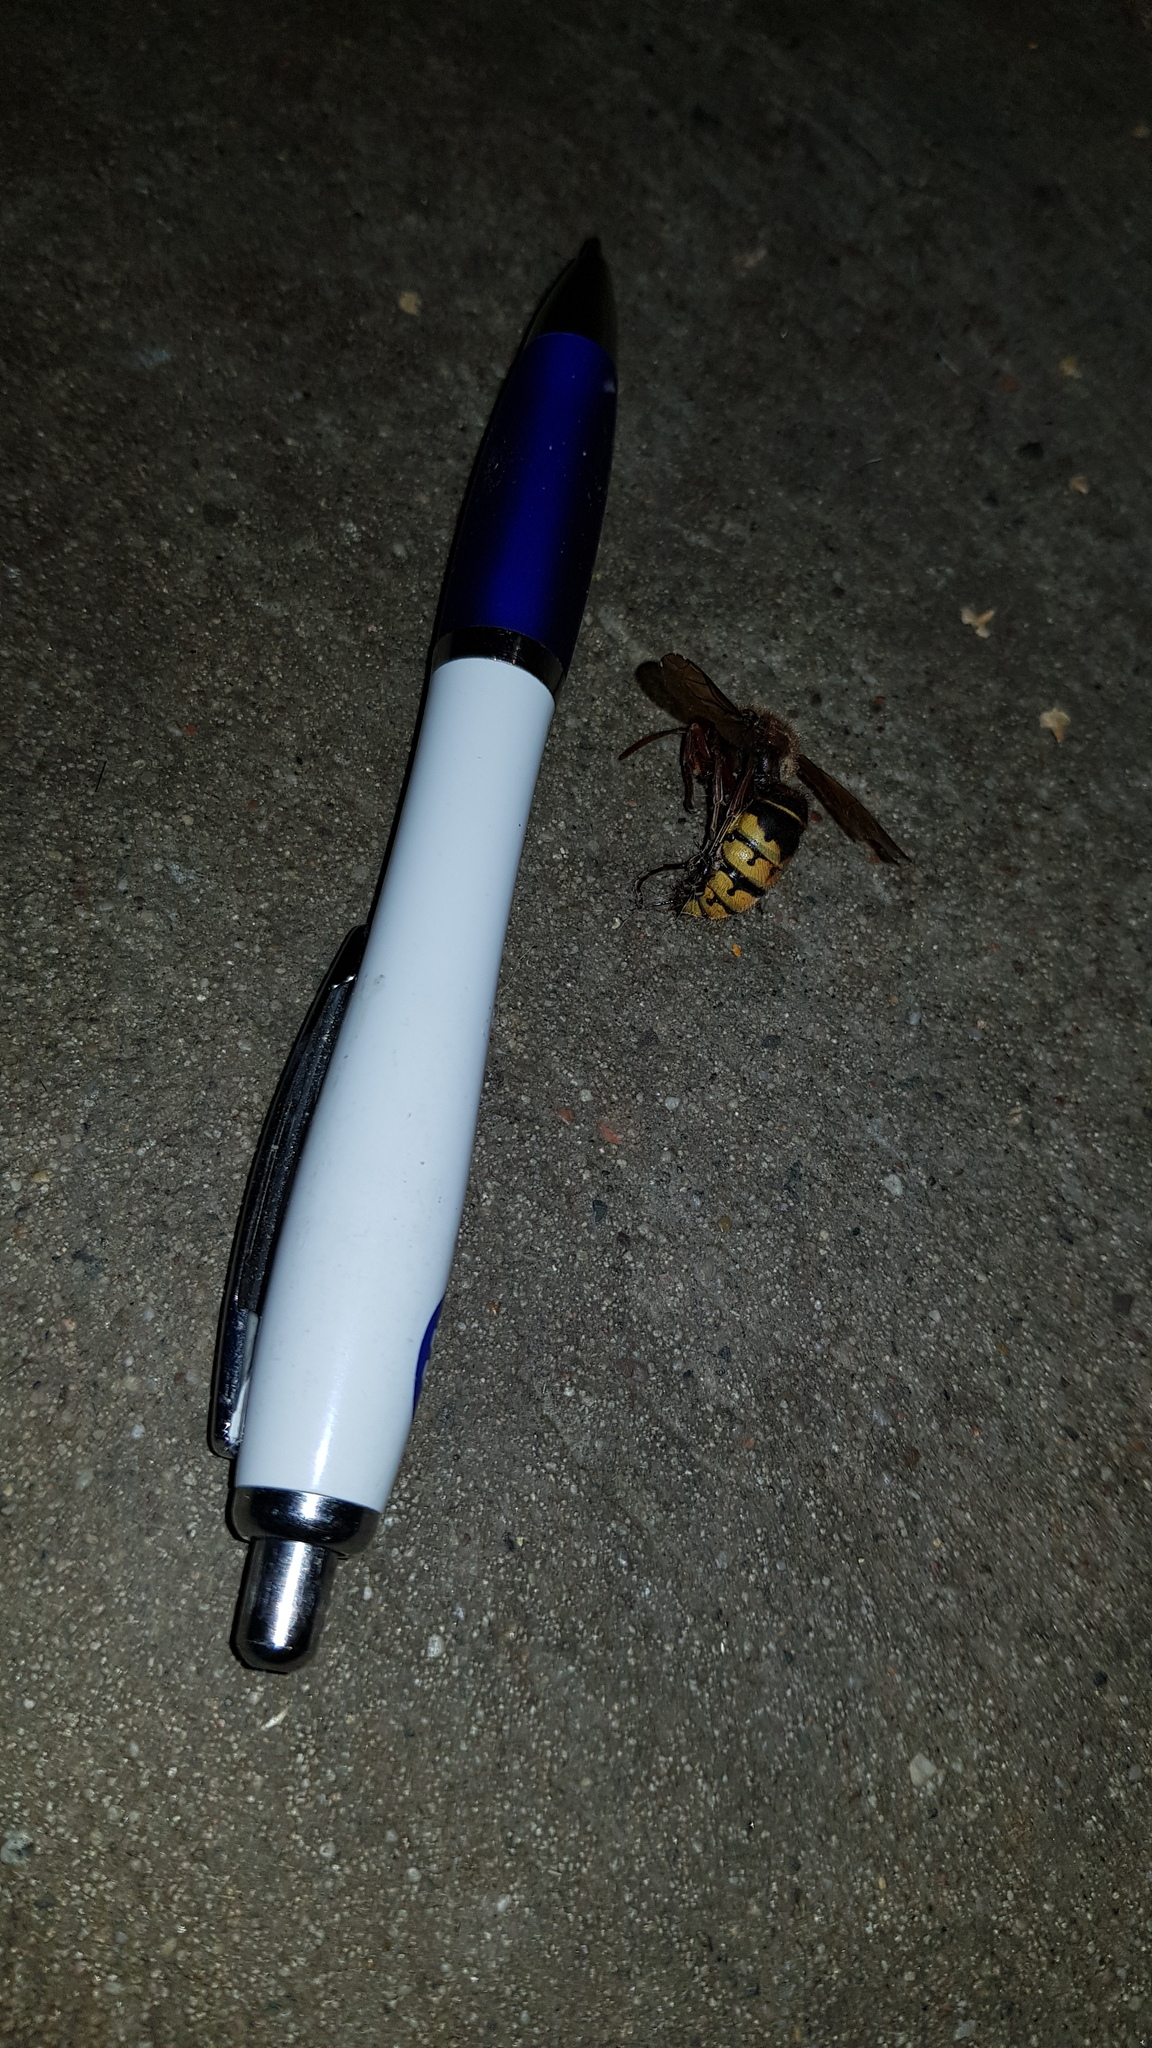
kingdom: Animalia
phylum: Arthropoda
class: Insecta
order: Hymenoptera
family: Vespidae
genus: Vespa
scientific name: Vespa crabro
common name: Hornet
